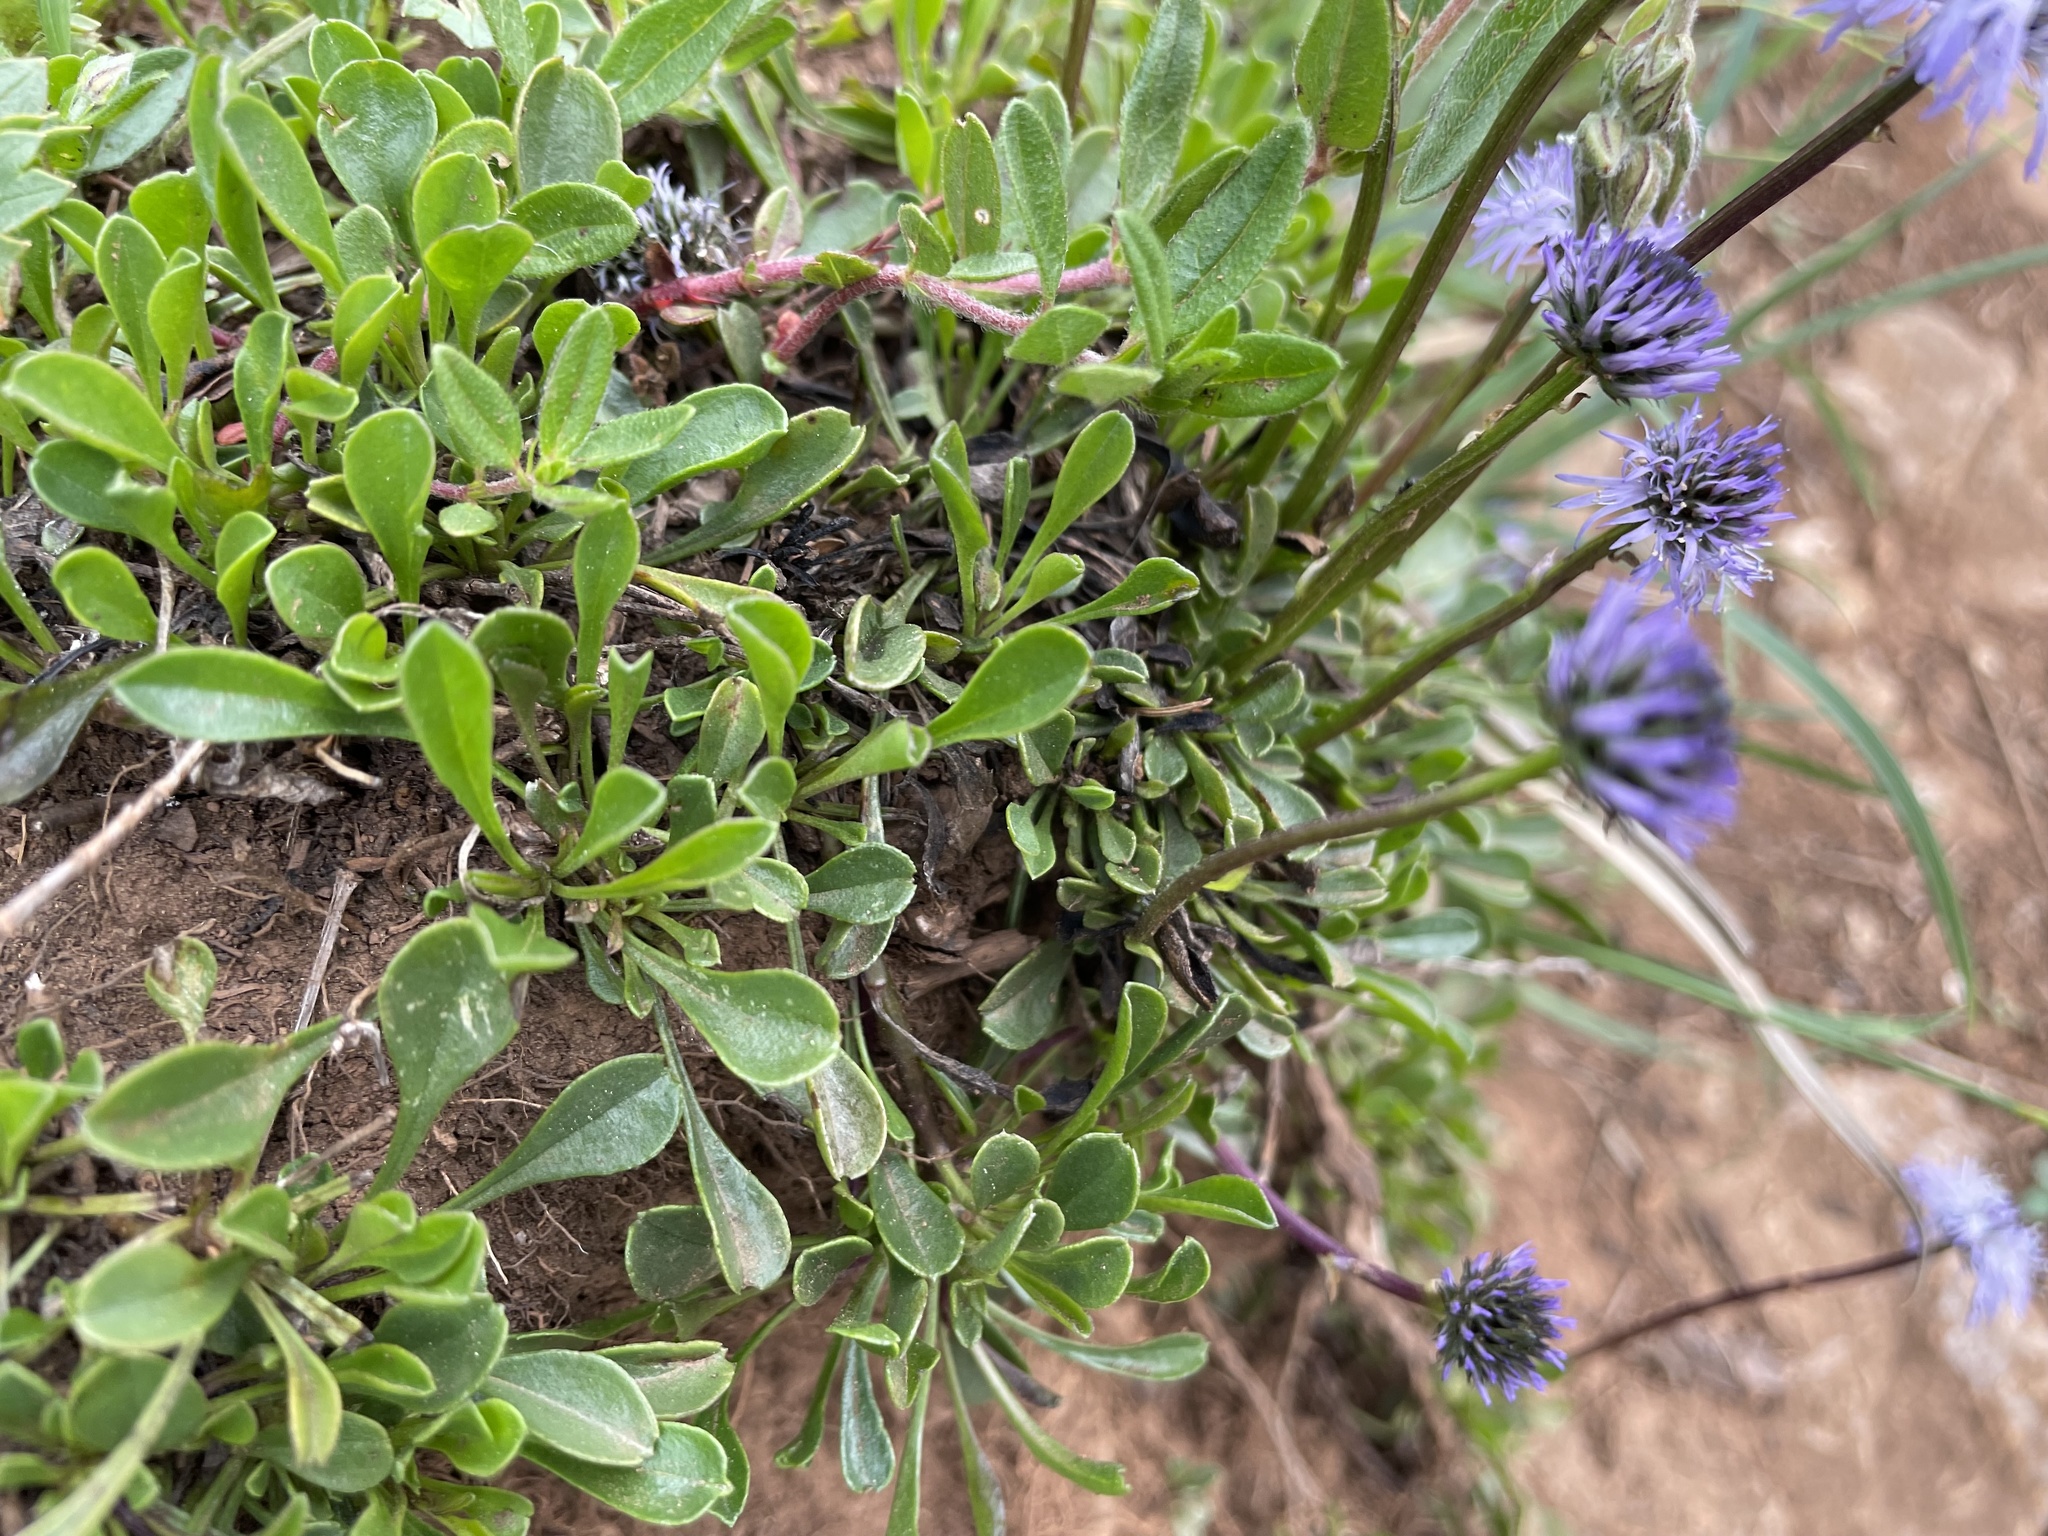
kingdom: Plantae
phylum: Tracheophyta
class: Magnoliopsida
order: Lamiales
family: Plantaginaceae
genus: Globularia
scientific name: Globularia cordifolia
